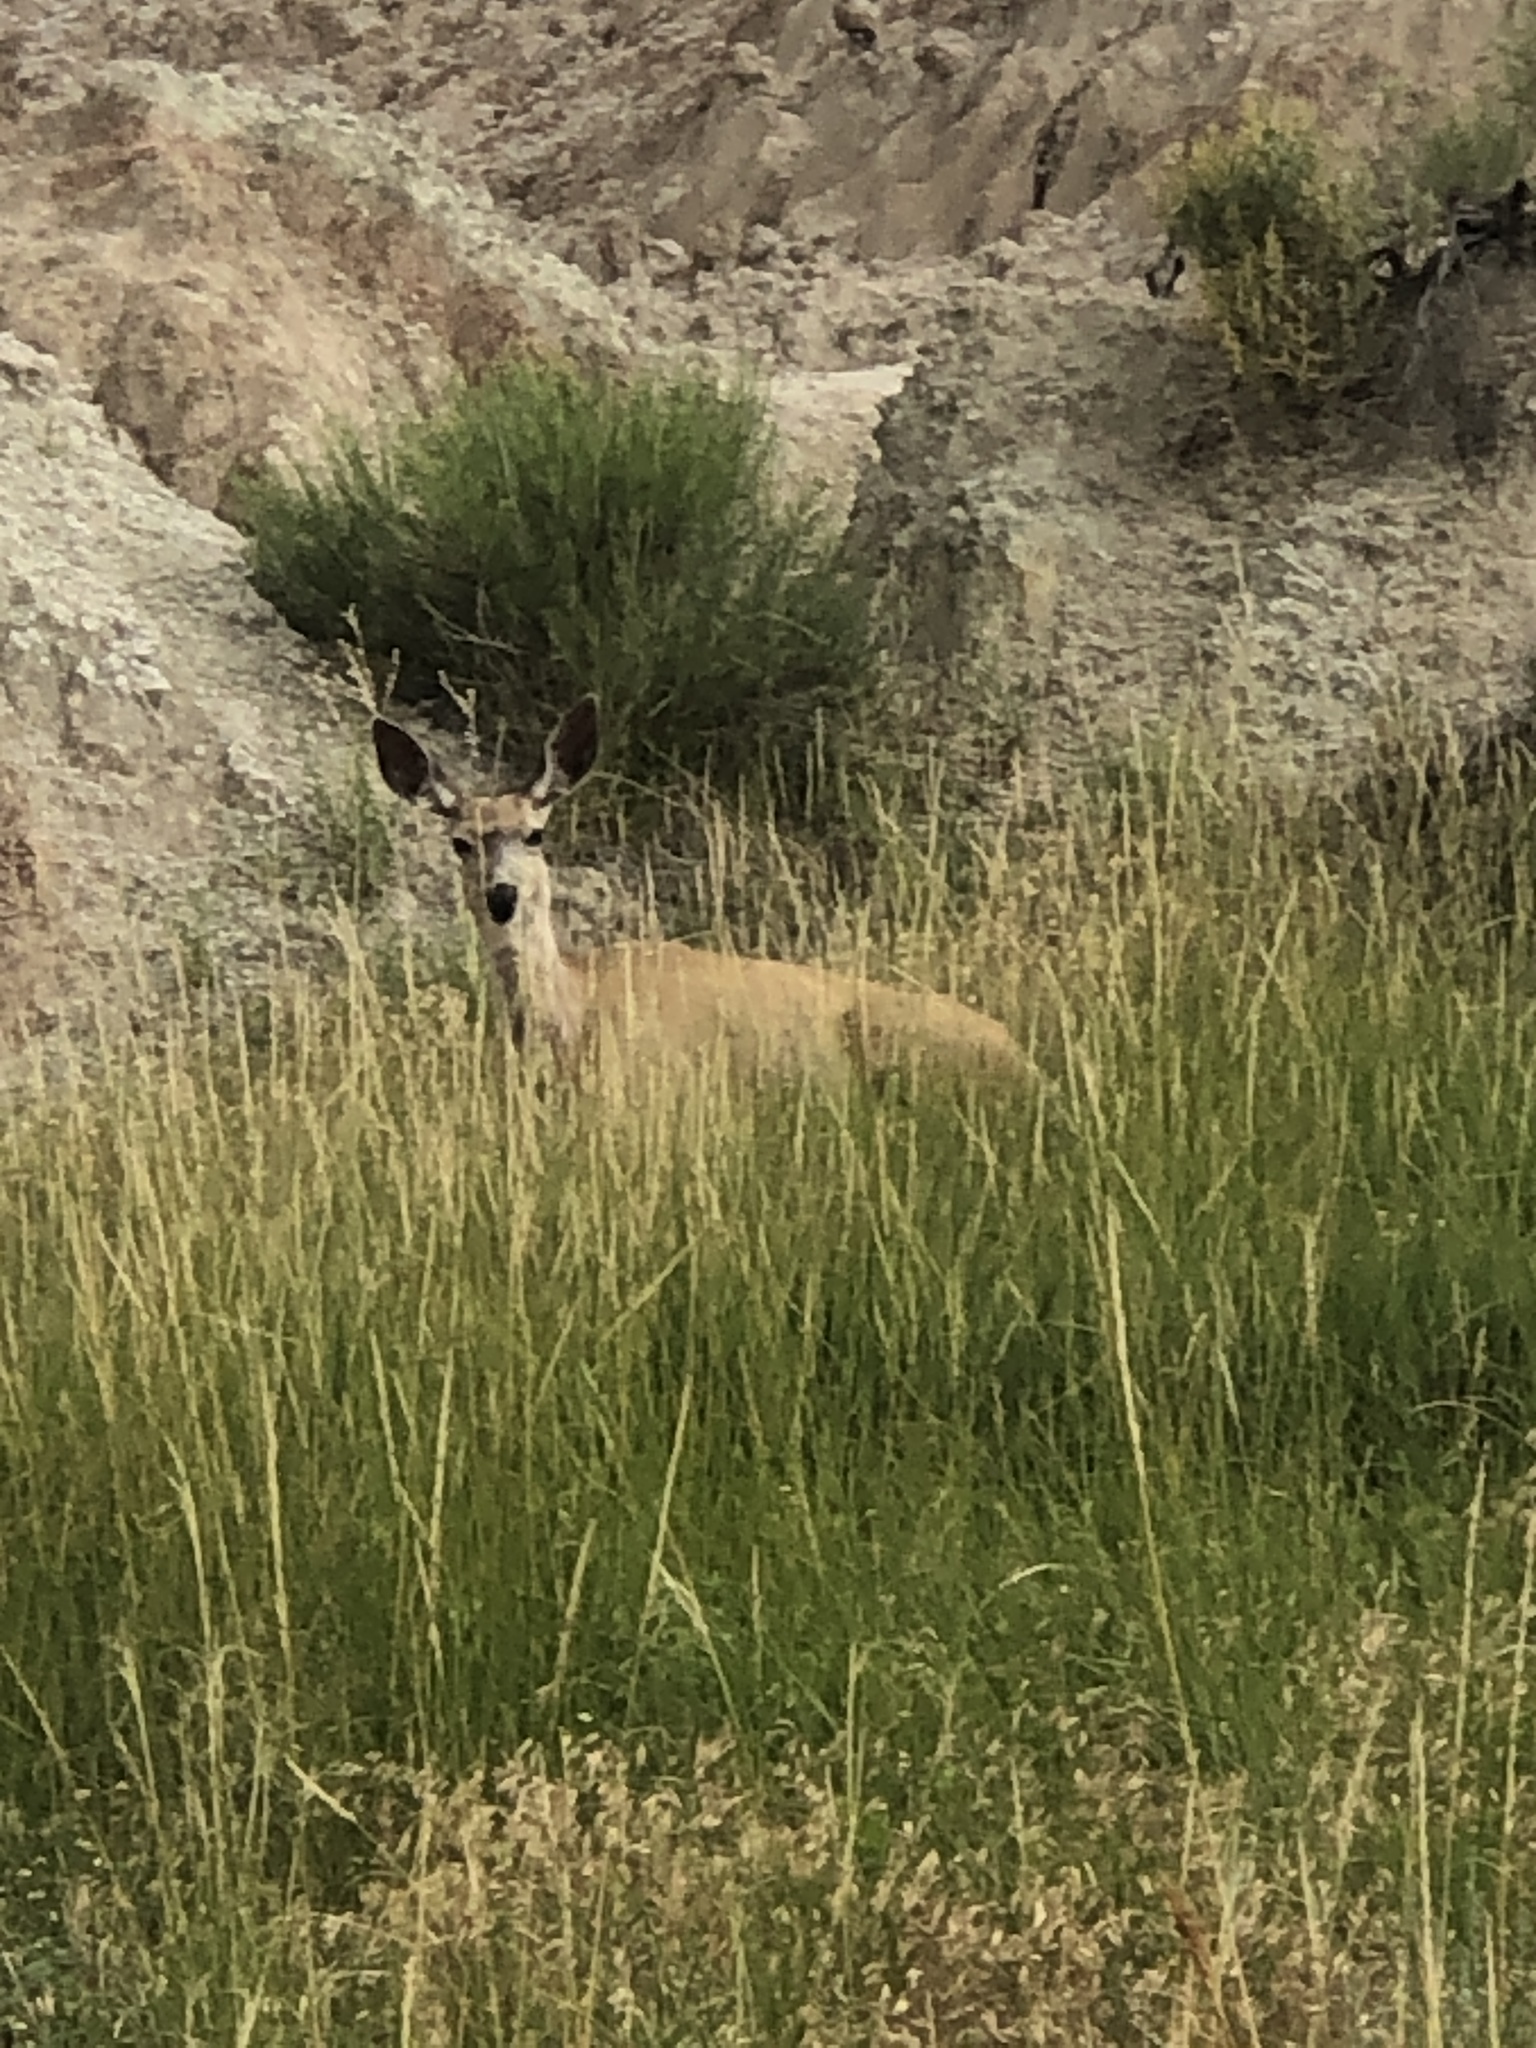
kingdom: Animalia
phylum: Chordata
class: Mammalia
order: Artiodactyla
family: Cervidae
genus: Odocoileus
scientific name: Odocoileus hemionus
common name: Mule deer
